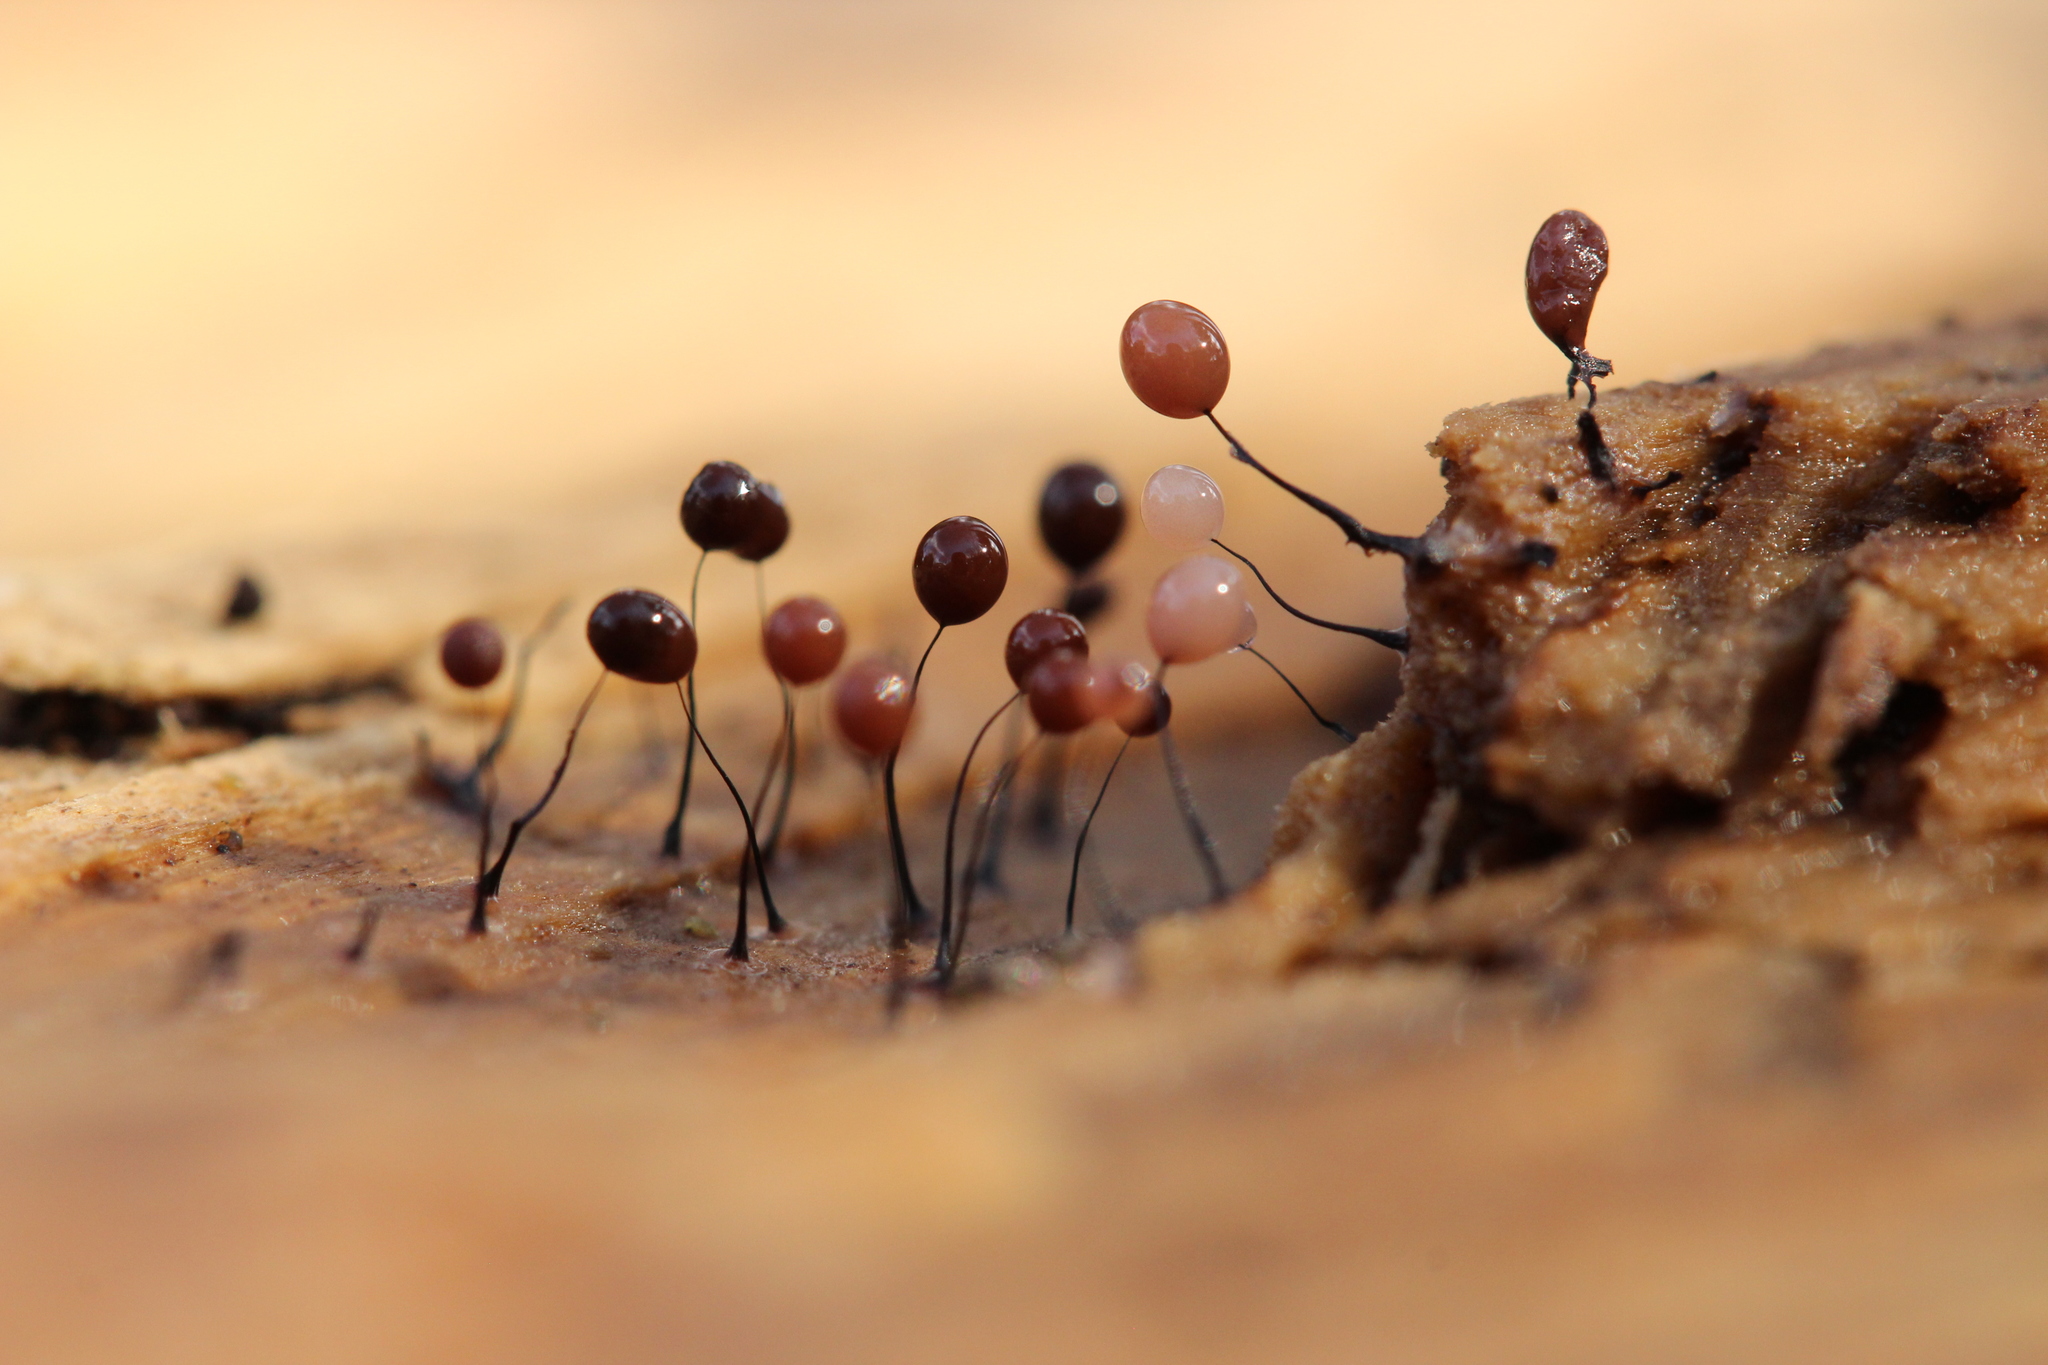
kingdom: Protozoa
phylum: Mycetozoa
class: Myxomycetes
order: Stemonitidales
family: Stemonitidaceae
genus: Comatricha
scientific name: Comatricha
